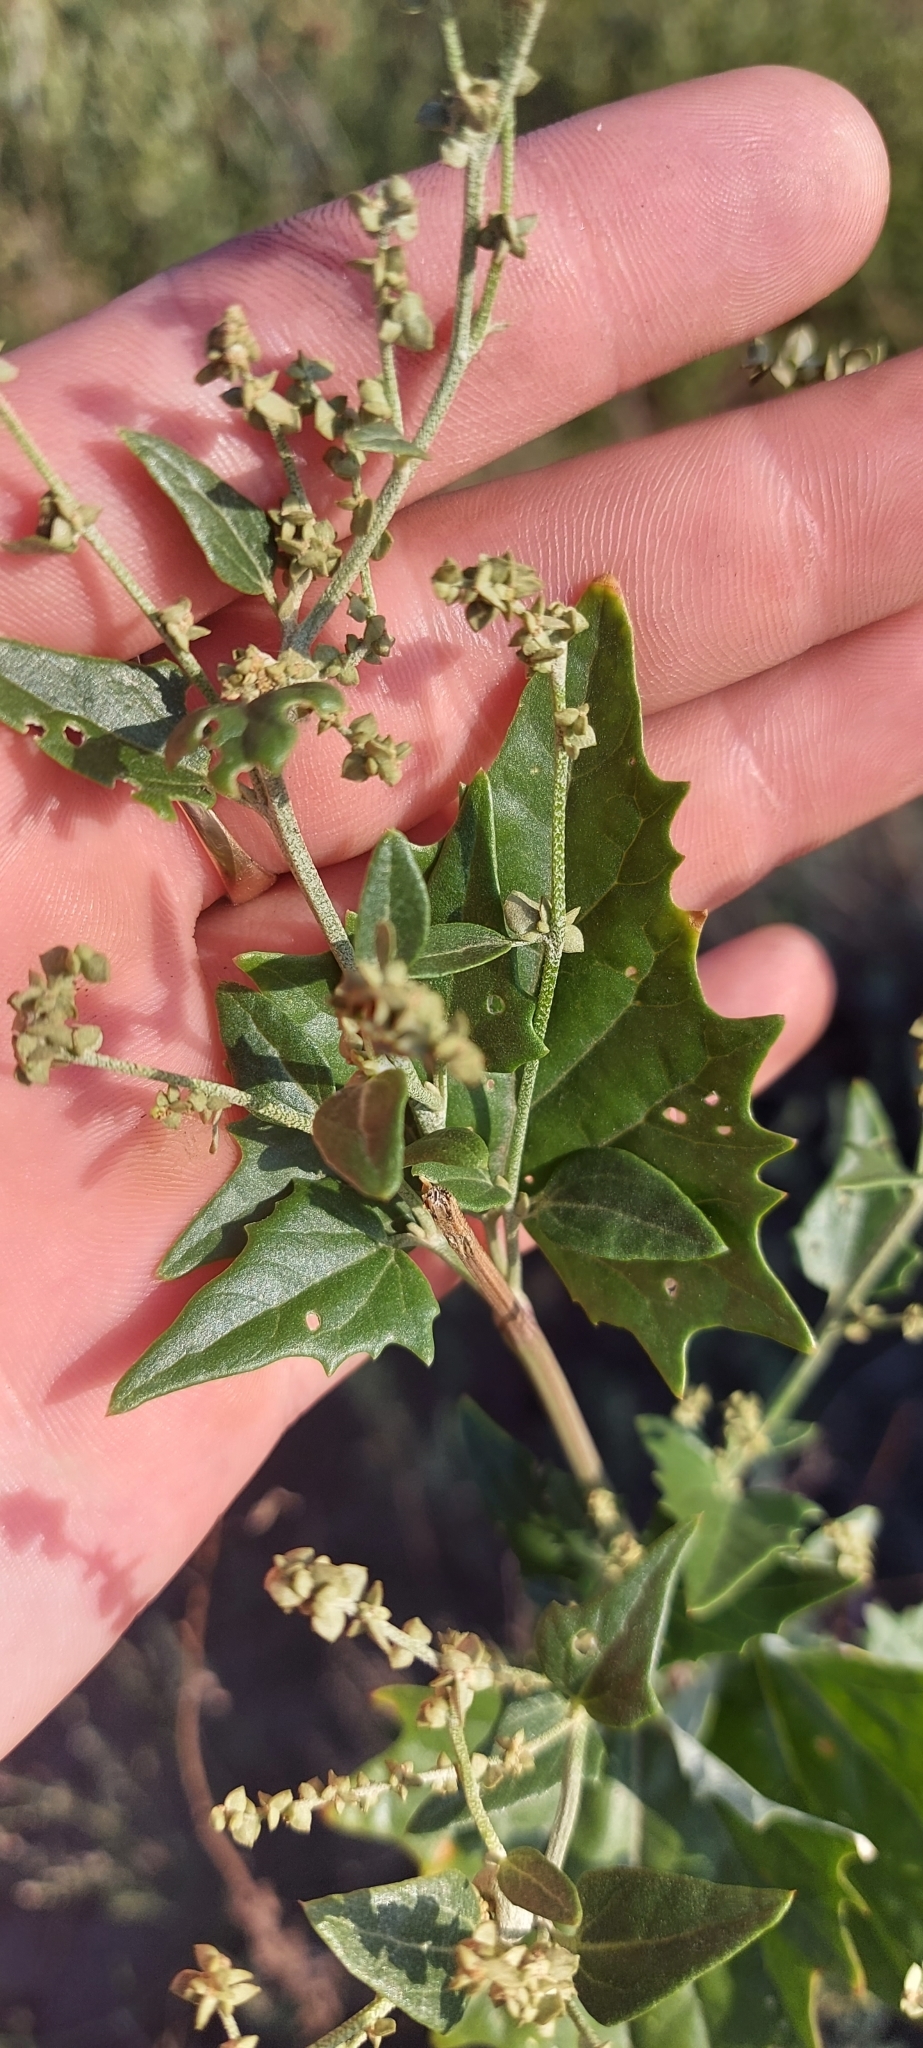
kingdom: Plantae
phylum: Tracheophyta
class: Magnoliopsida
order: Caryophyllales
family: Amaranthaceae
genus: Atriplex
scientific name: Atriplex sagittata
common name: Purple orache
